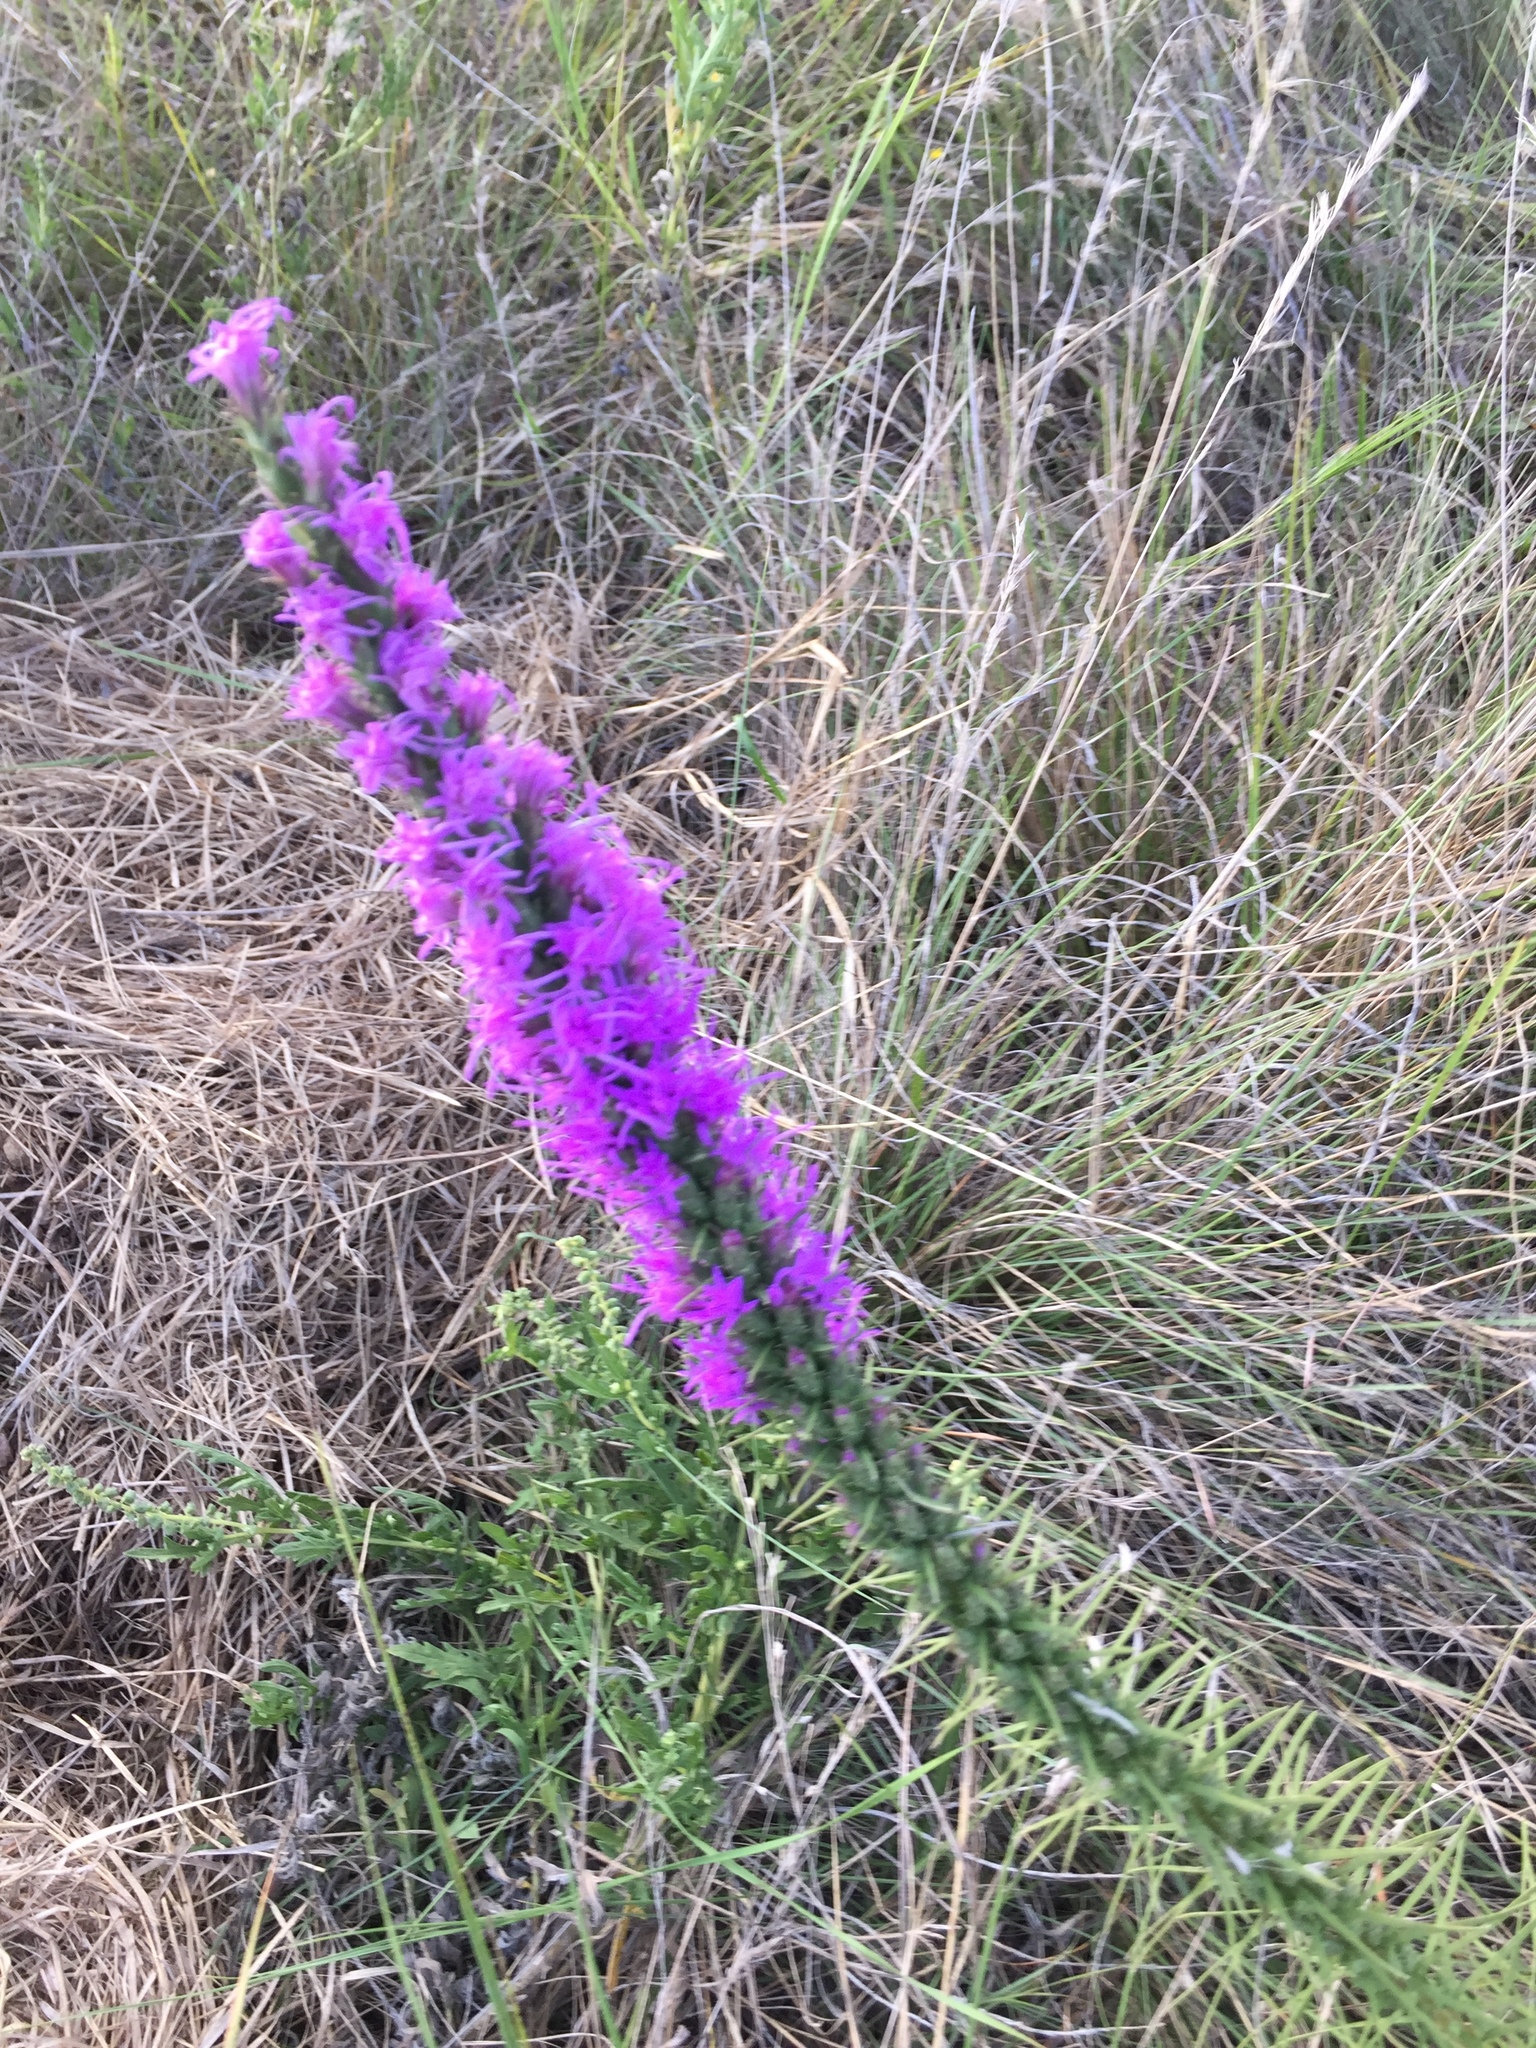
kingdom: Plantae
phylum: Tracheophyta
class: Magnoliopsida
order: Asterales
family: Asteraceae
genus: Liatris
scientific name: Liatris punctata
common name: Dotted gayfeather
